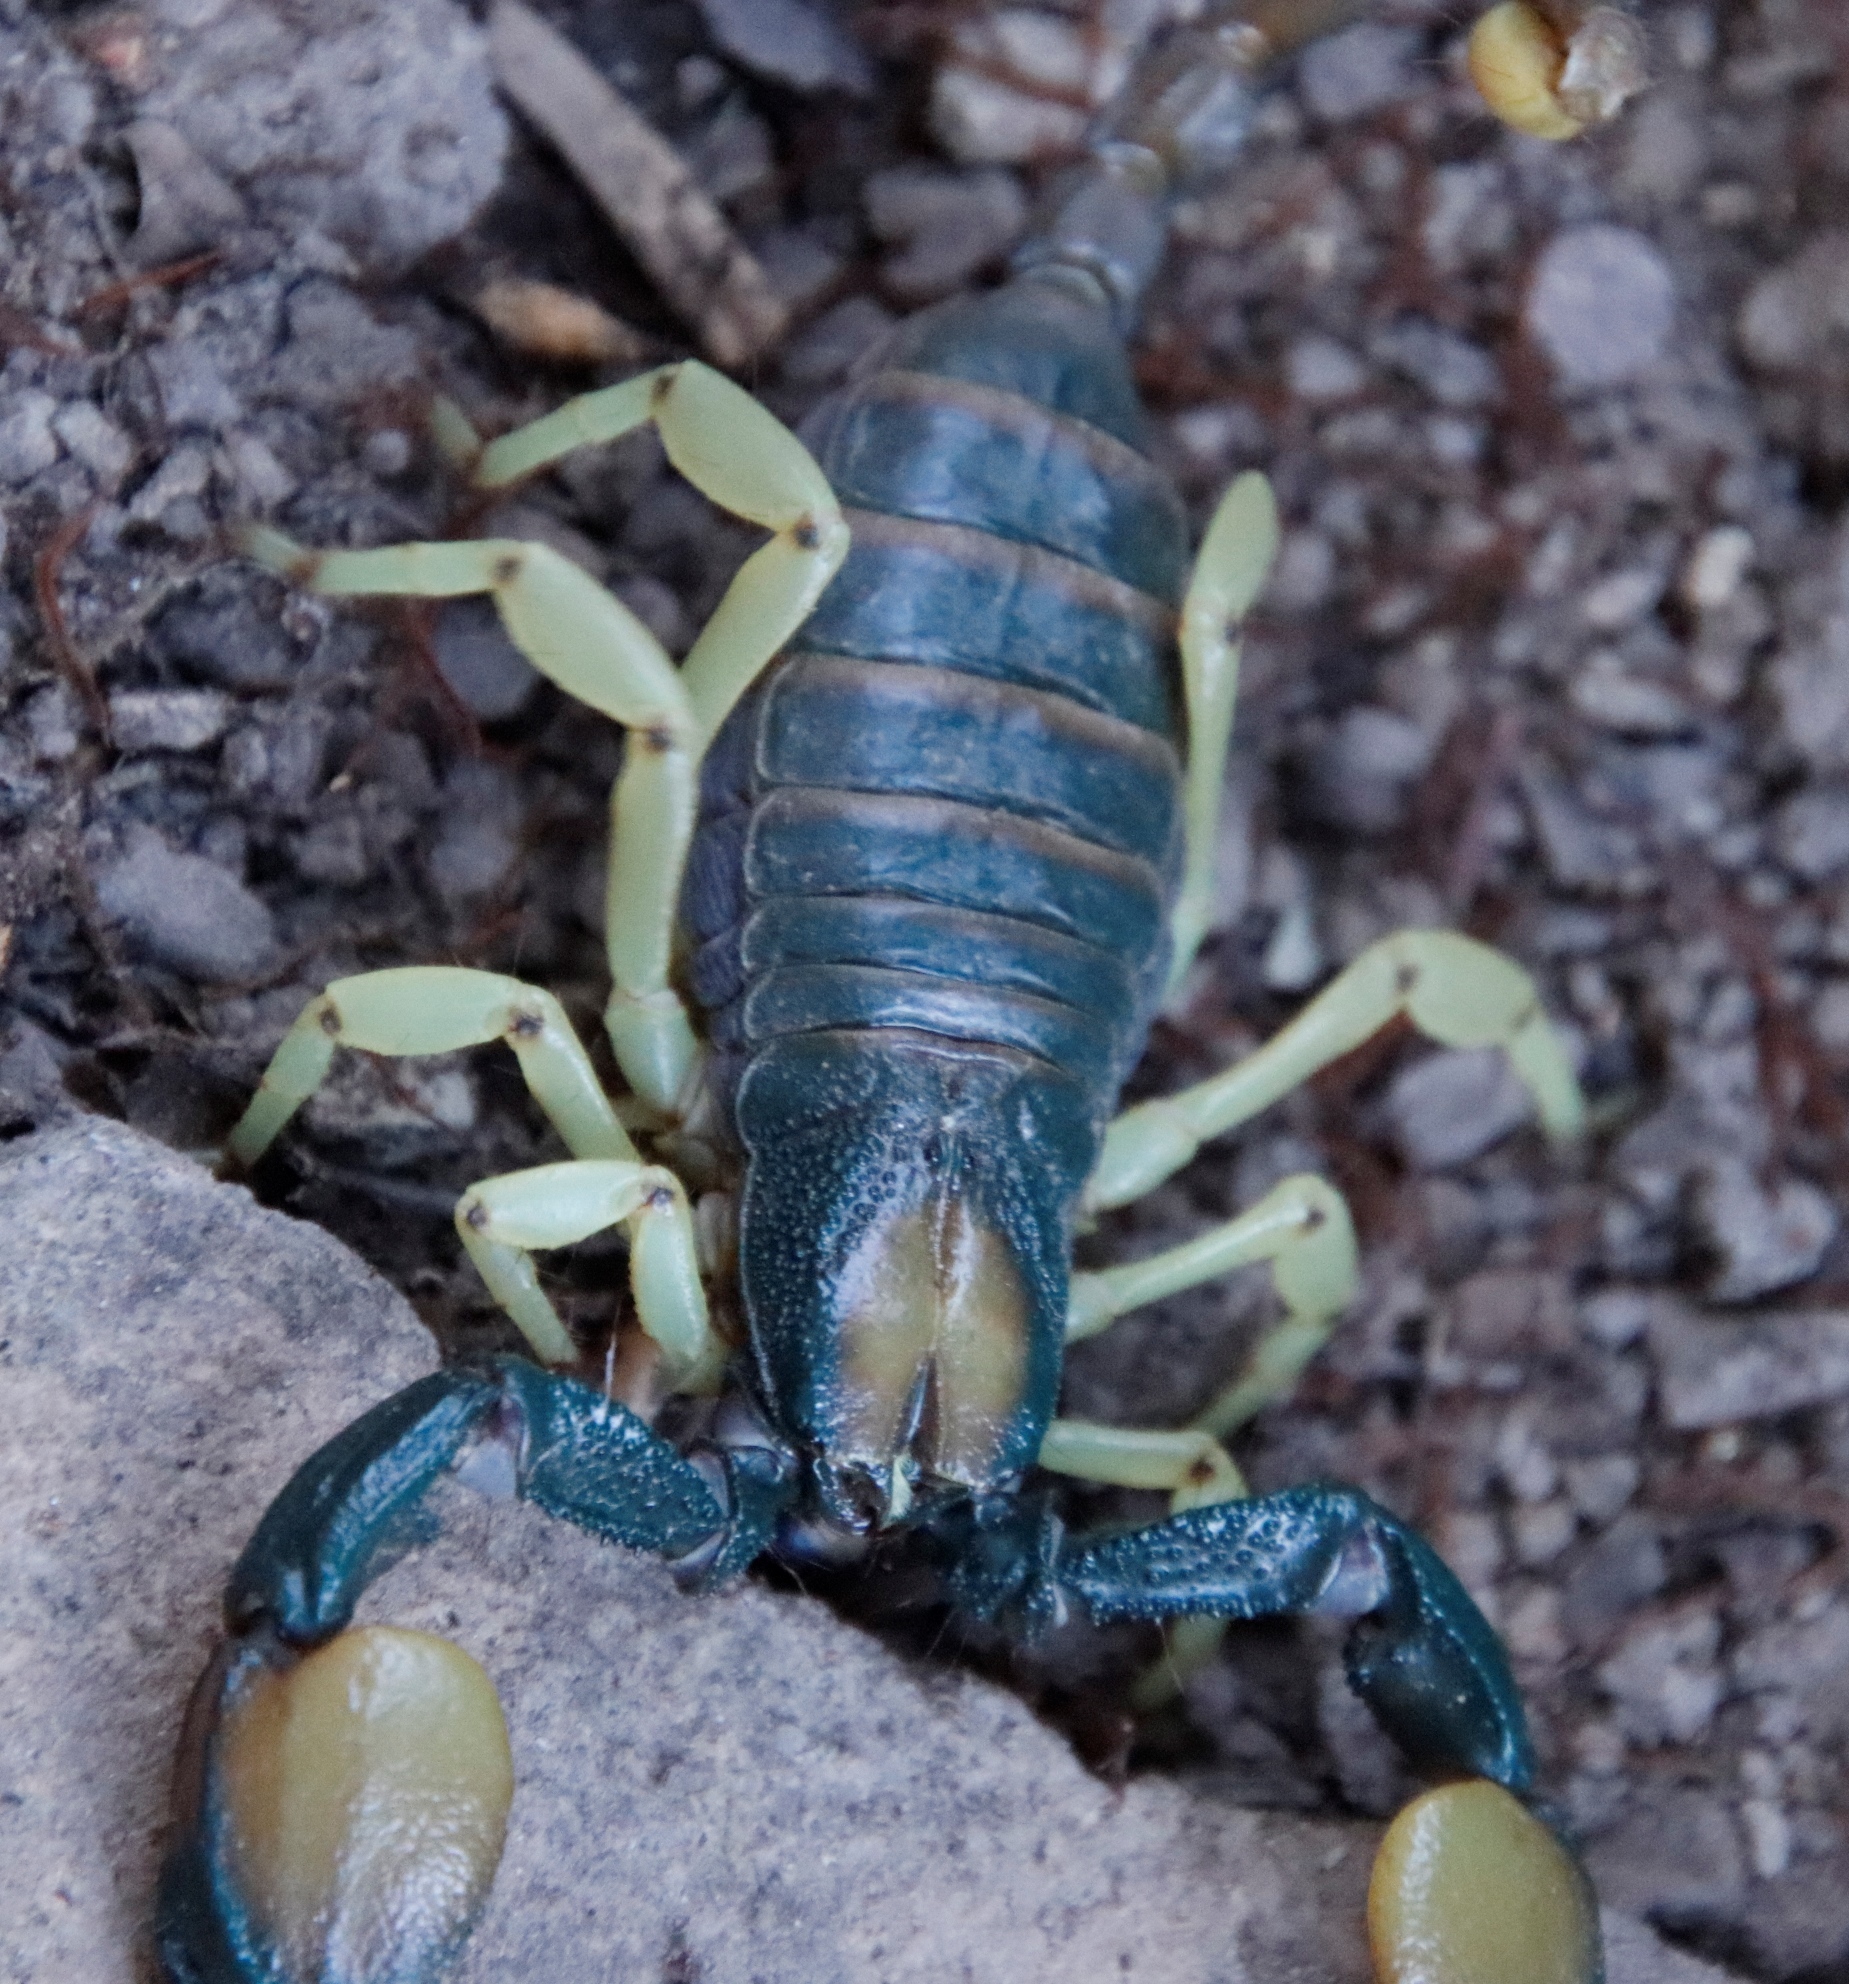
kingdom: Animalia
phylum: Arthropoda
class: Arachnida
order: Scorpiones
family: Scorpionidae
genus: Opistophthalmus
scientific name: Opistophthalmus pallipes
